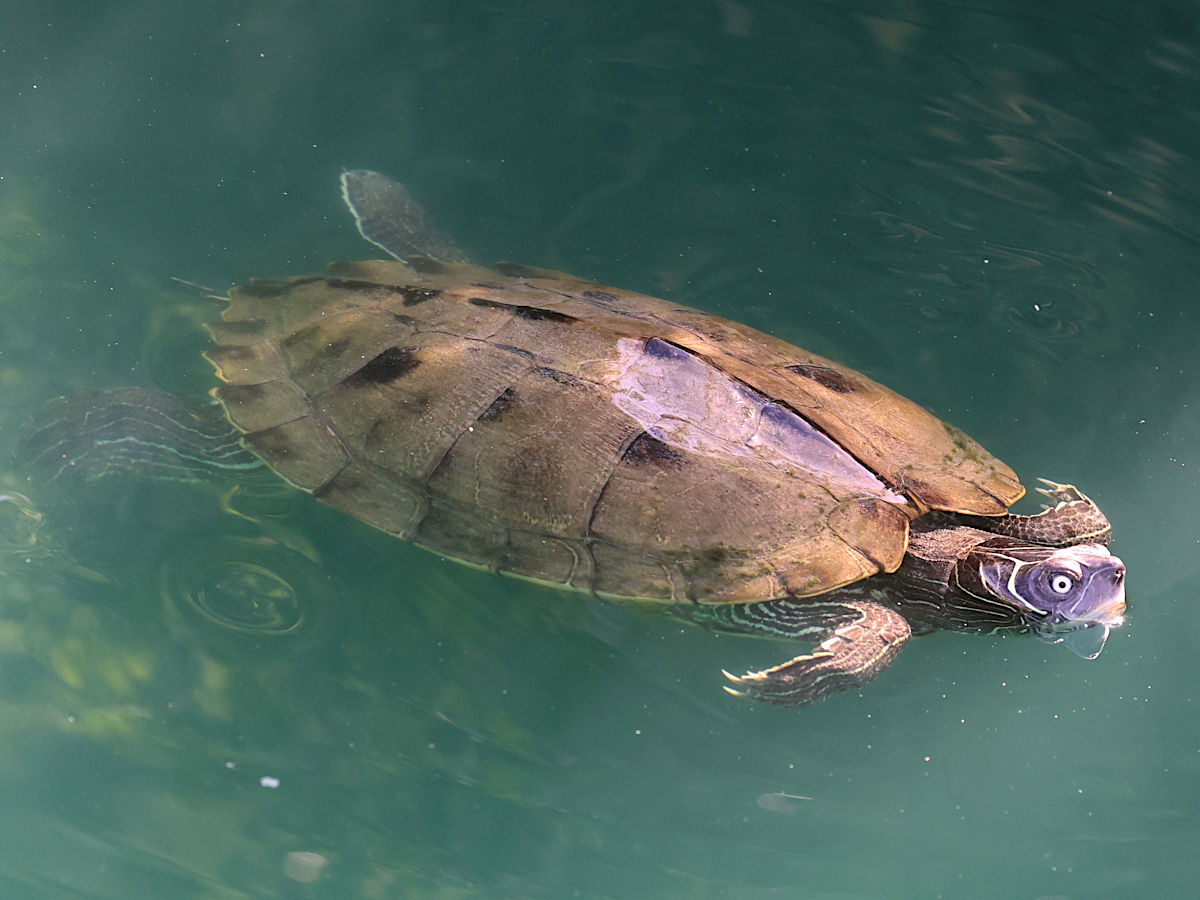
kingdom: Animalia
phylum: Chordata
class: Testudines
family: Emydidae
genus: Graptemys
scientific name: Graptemys pseudogeographica
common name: False map turtle
